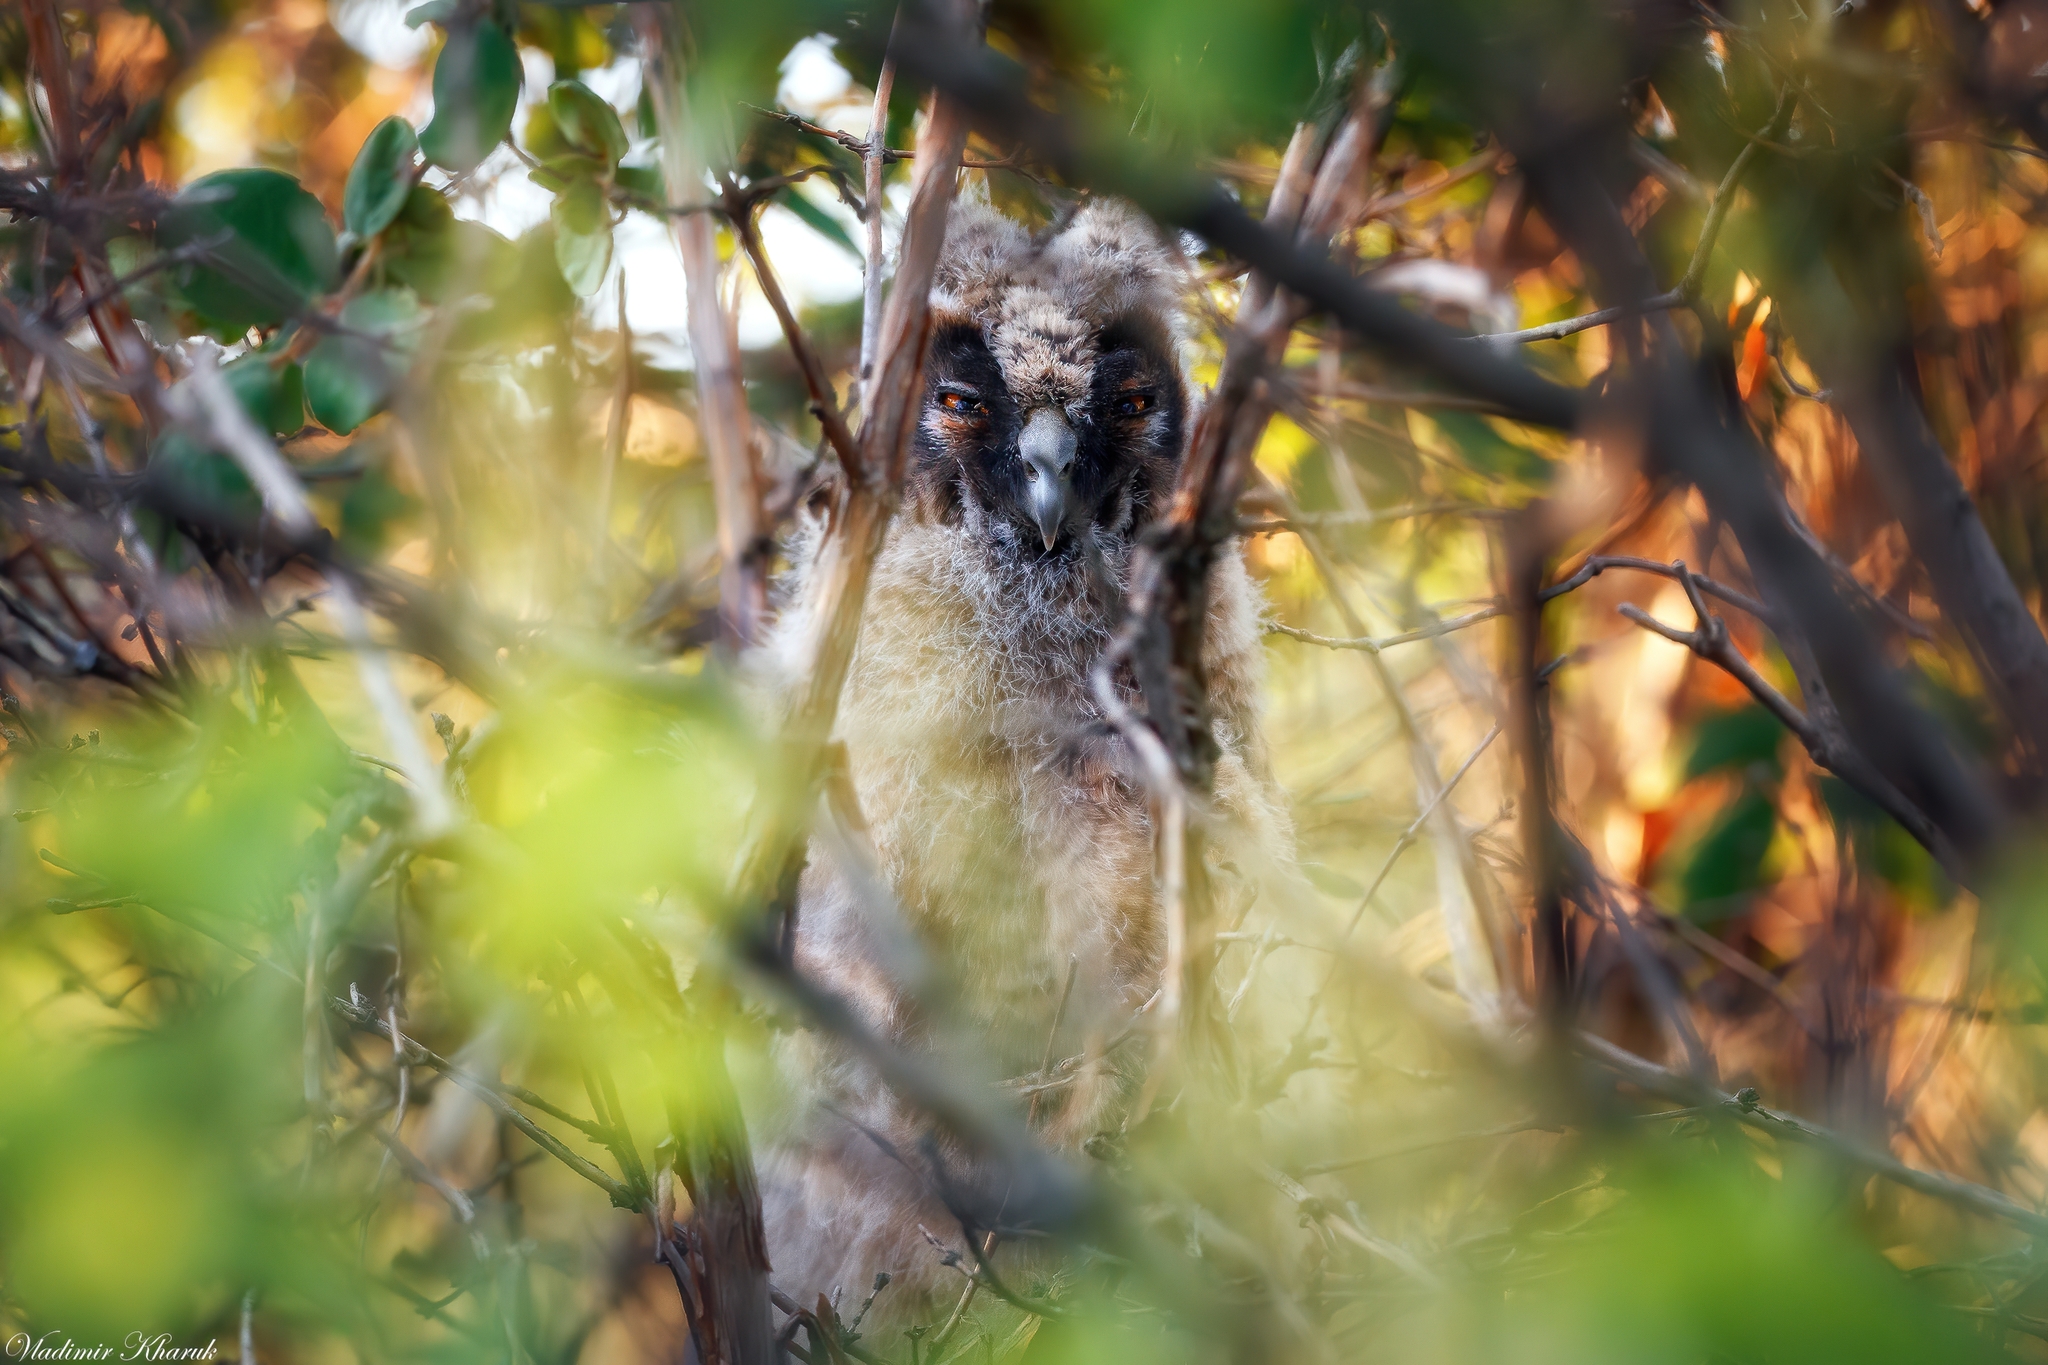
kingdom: Animalia
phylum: Chordata
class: Aves
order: Strigiformes
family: Strigidae
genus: Asio
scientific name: Asio otus
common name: Long-eared owl
